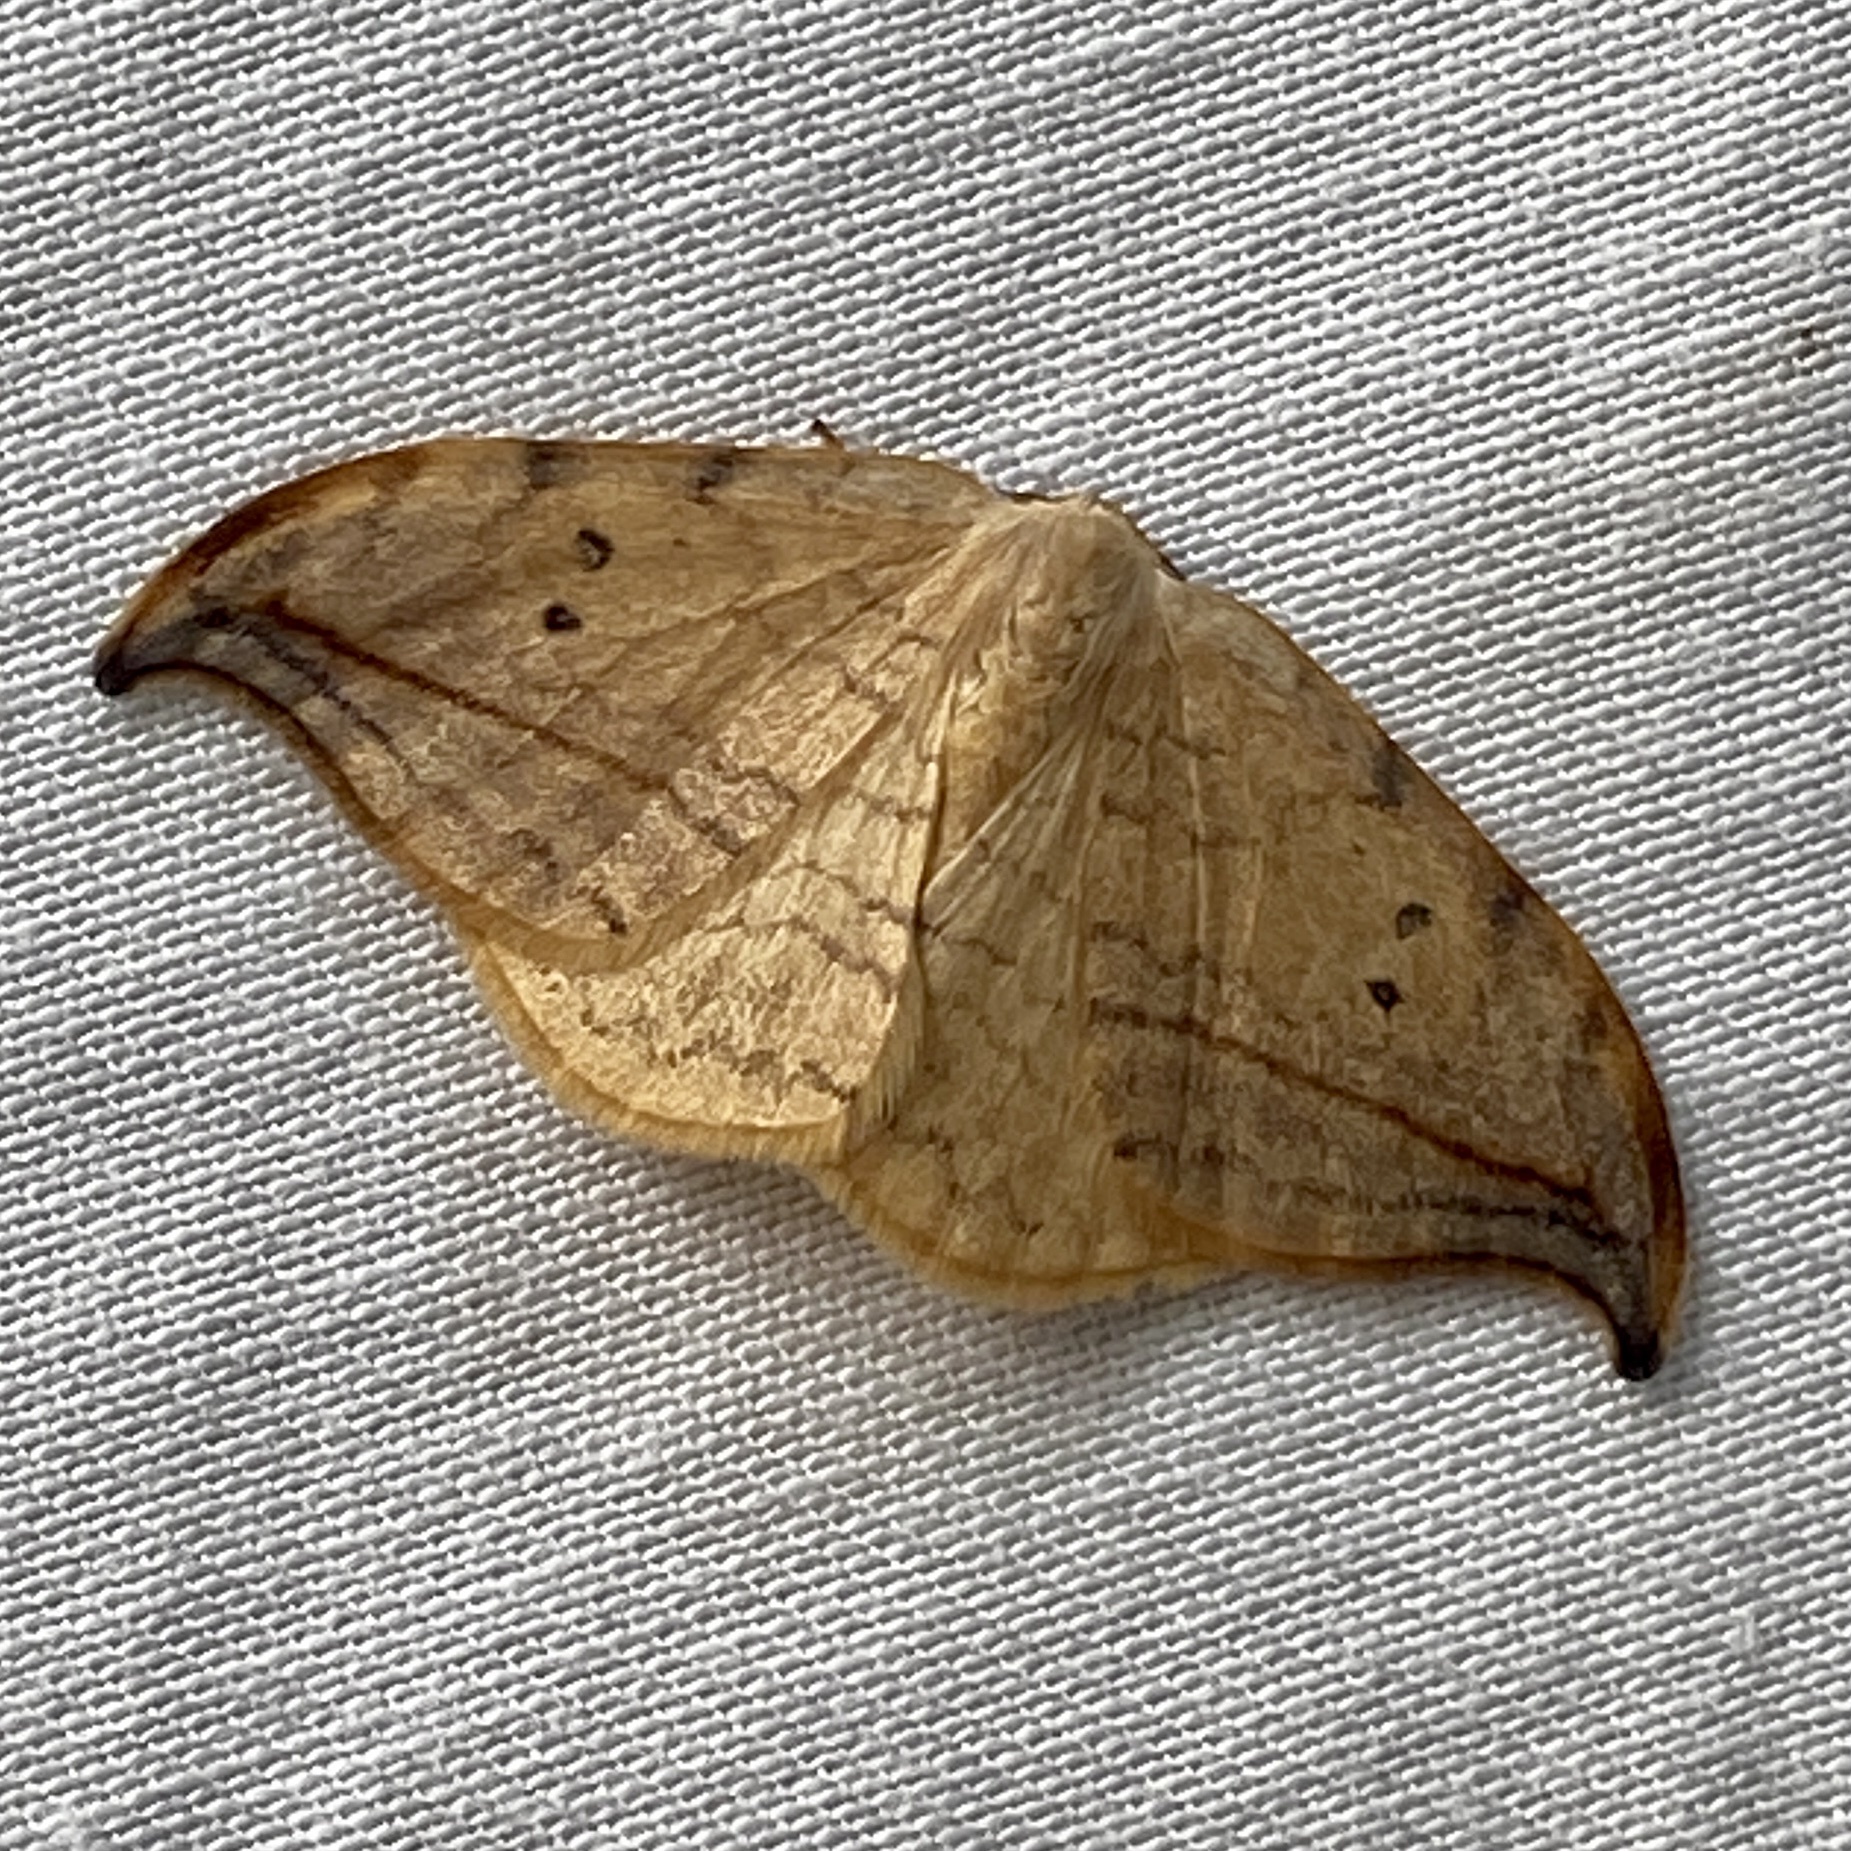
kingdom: Animalia
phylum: Arthropoda
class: Insecta
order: Lepidoptera
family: Drepanidae
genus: Drepana
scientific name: Drepana arcuata
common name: Arched hooktip moth
